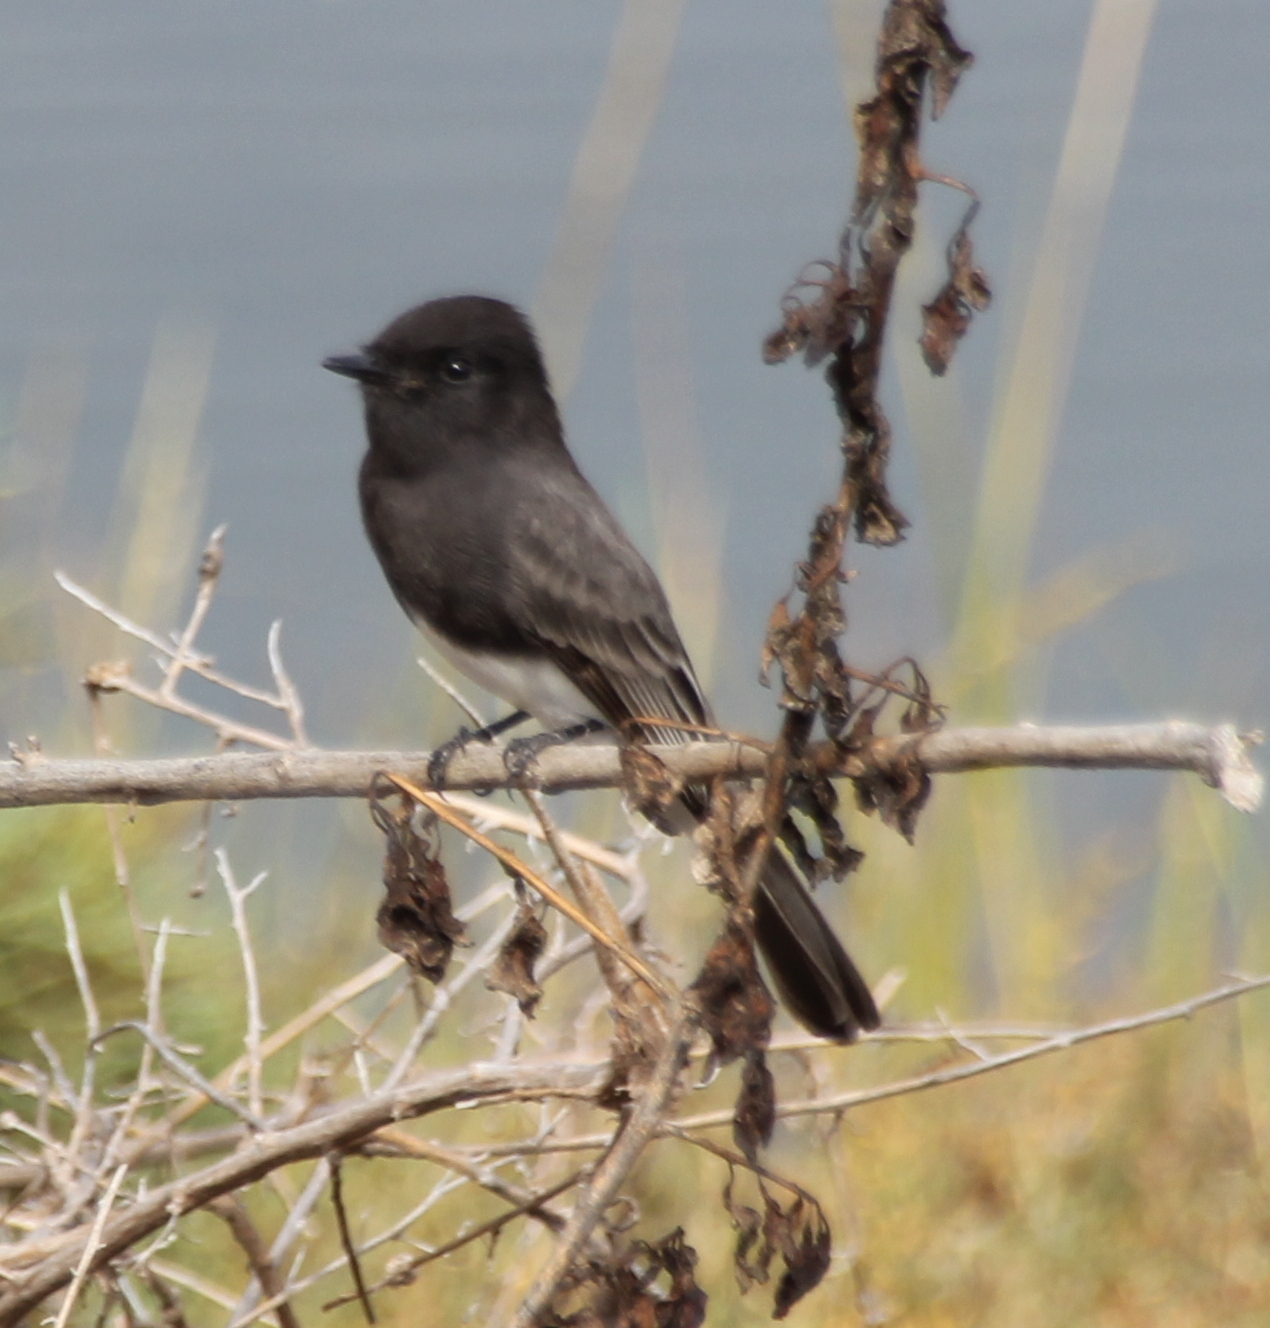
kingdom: Animalia
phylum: Chordata
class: Aves
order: Passeriformes
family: Tyrannidae
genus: Sayornis
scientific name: Sayornis nigricans
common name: Black phoebe
